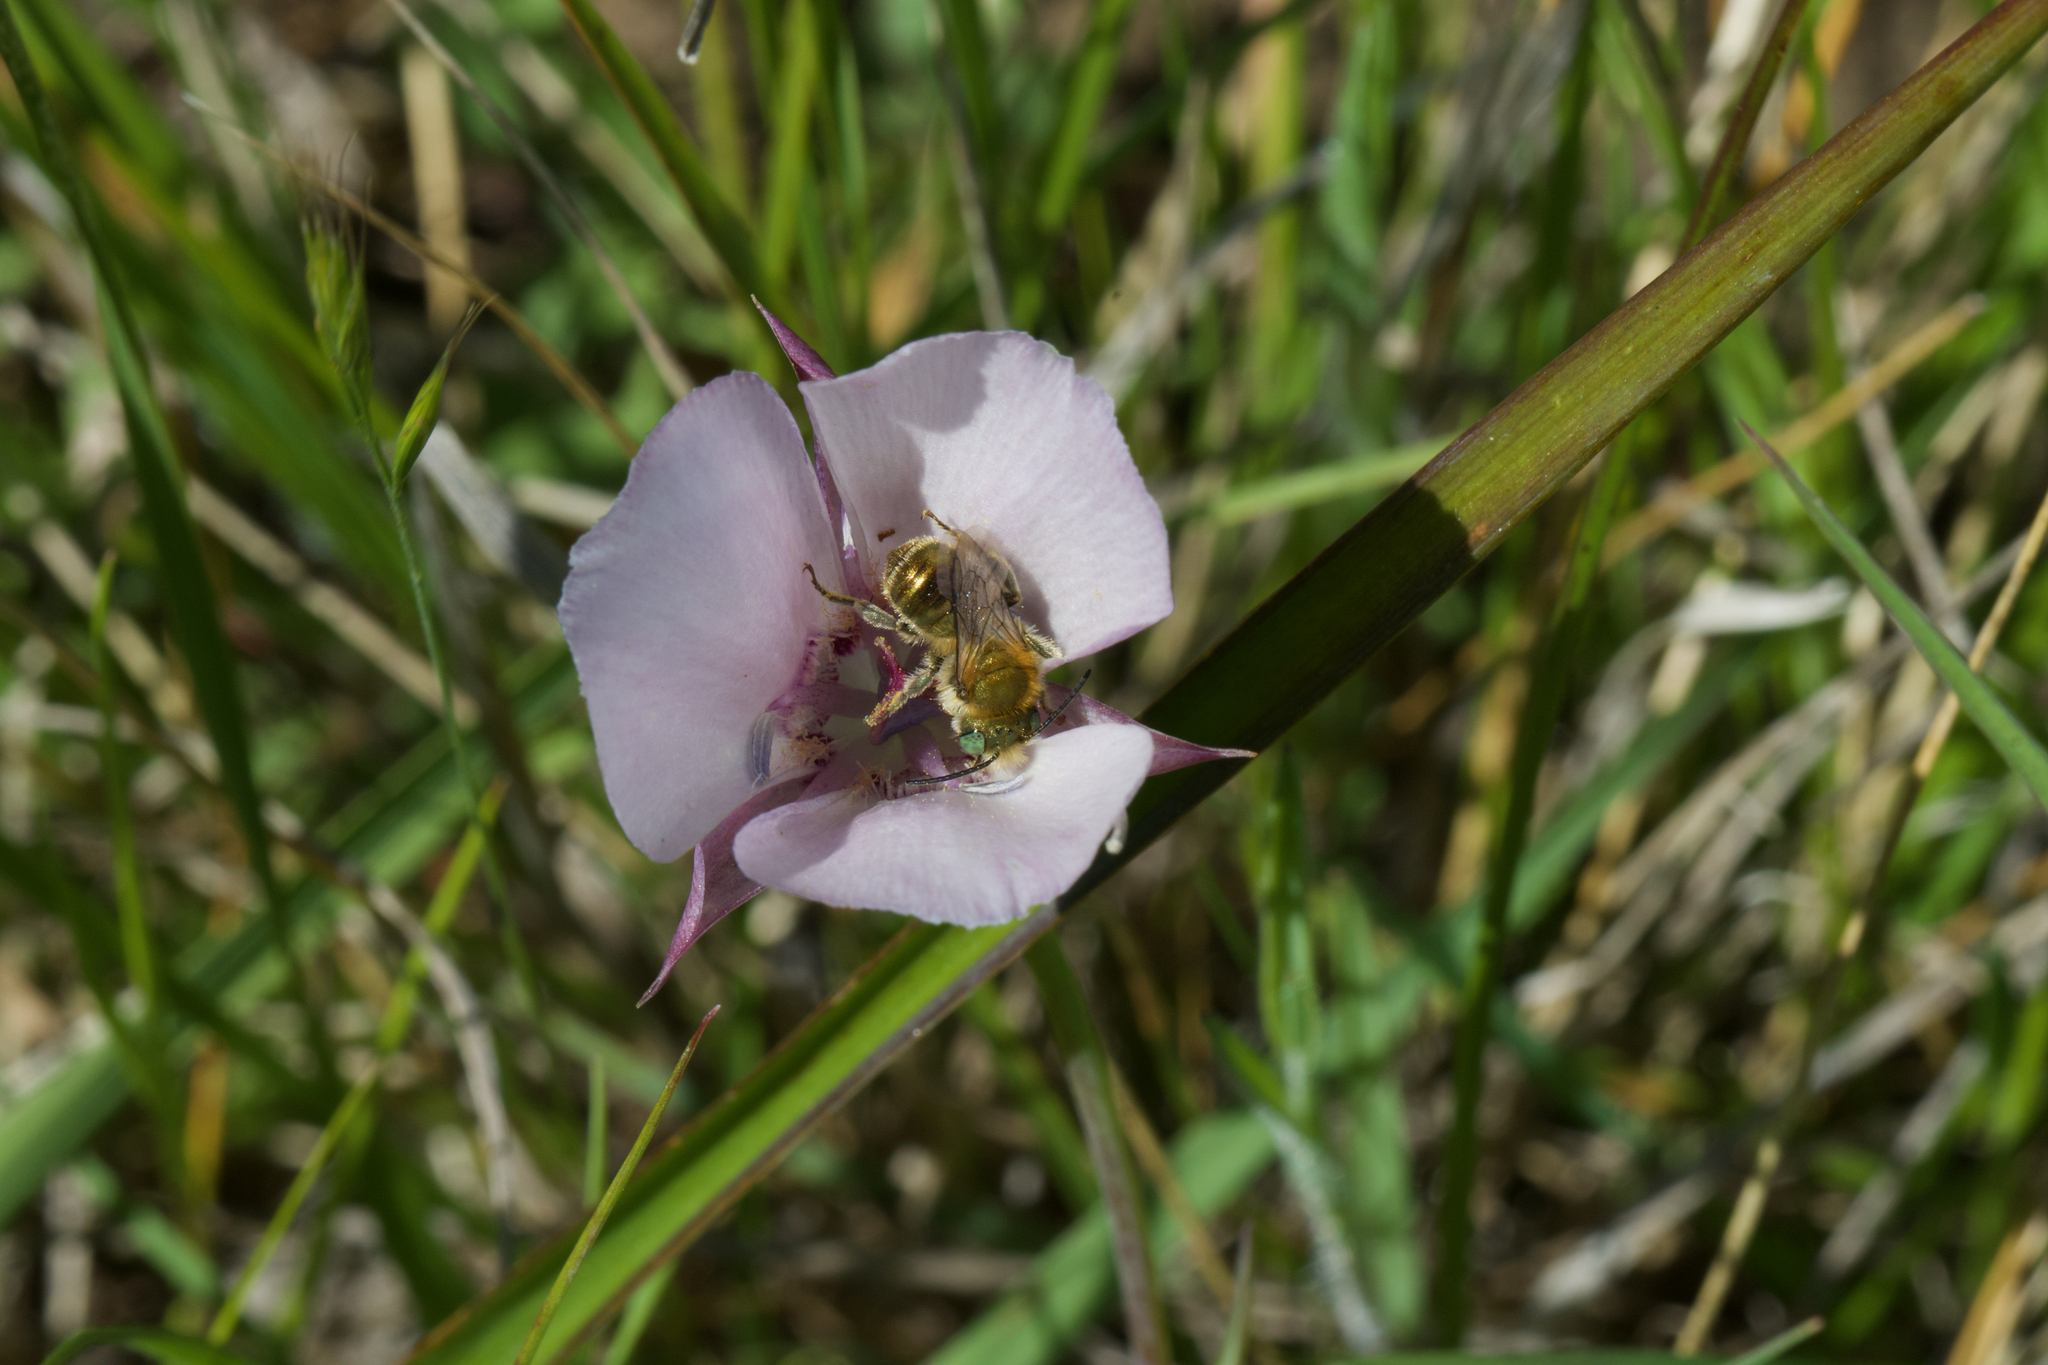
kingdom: Plantae
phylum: Tracheophyta
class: Liliopsida
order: Liliales
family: Liliaceae
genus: Calochortus
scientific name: Calochortus umbellatus
